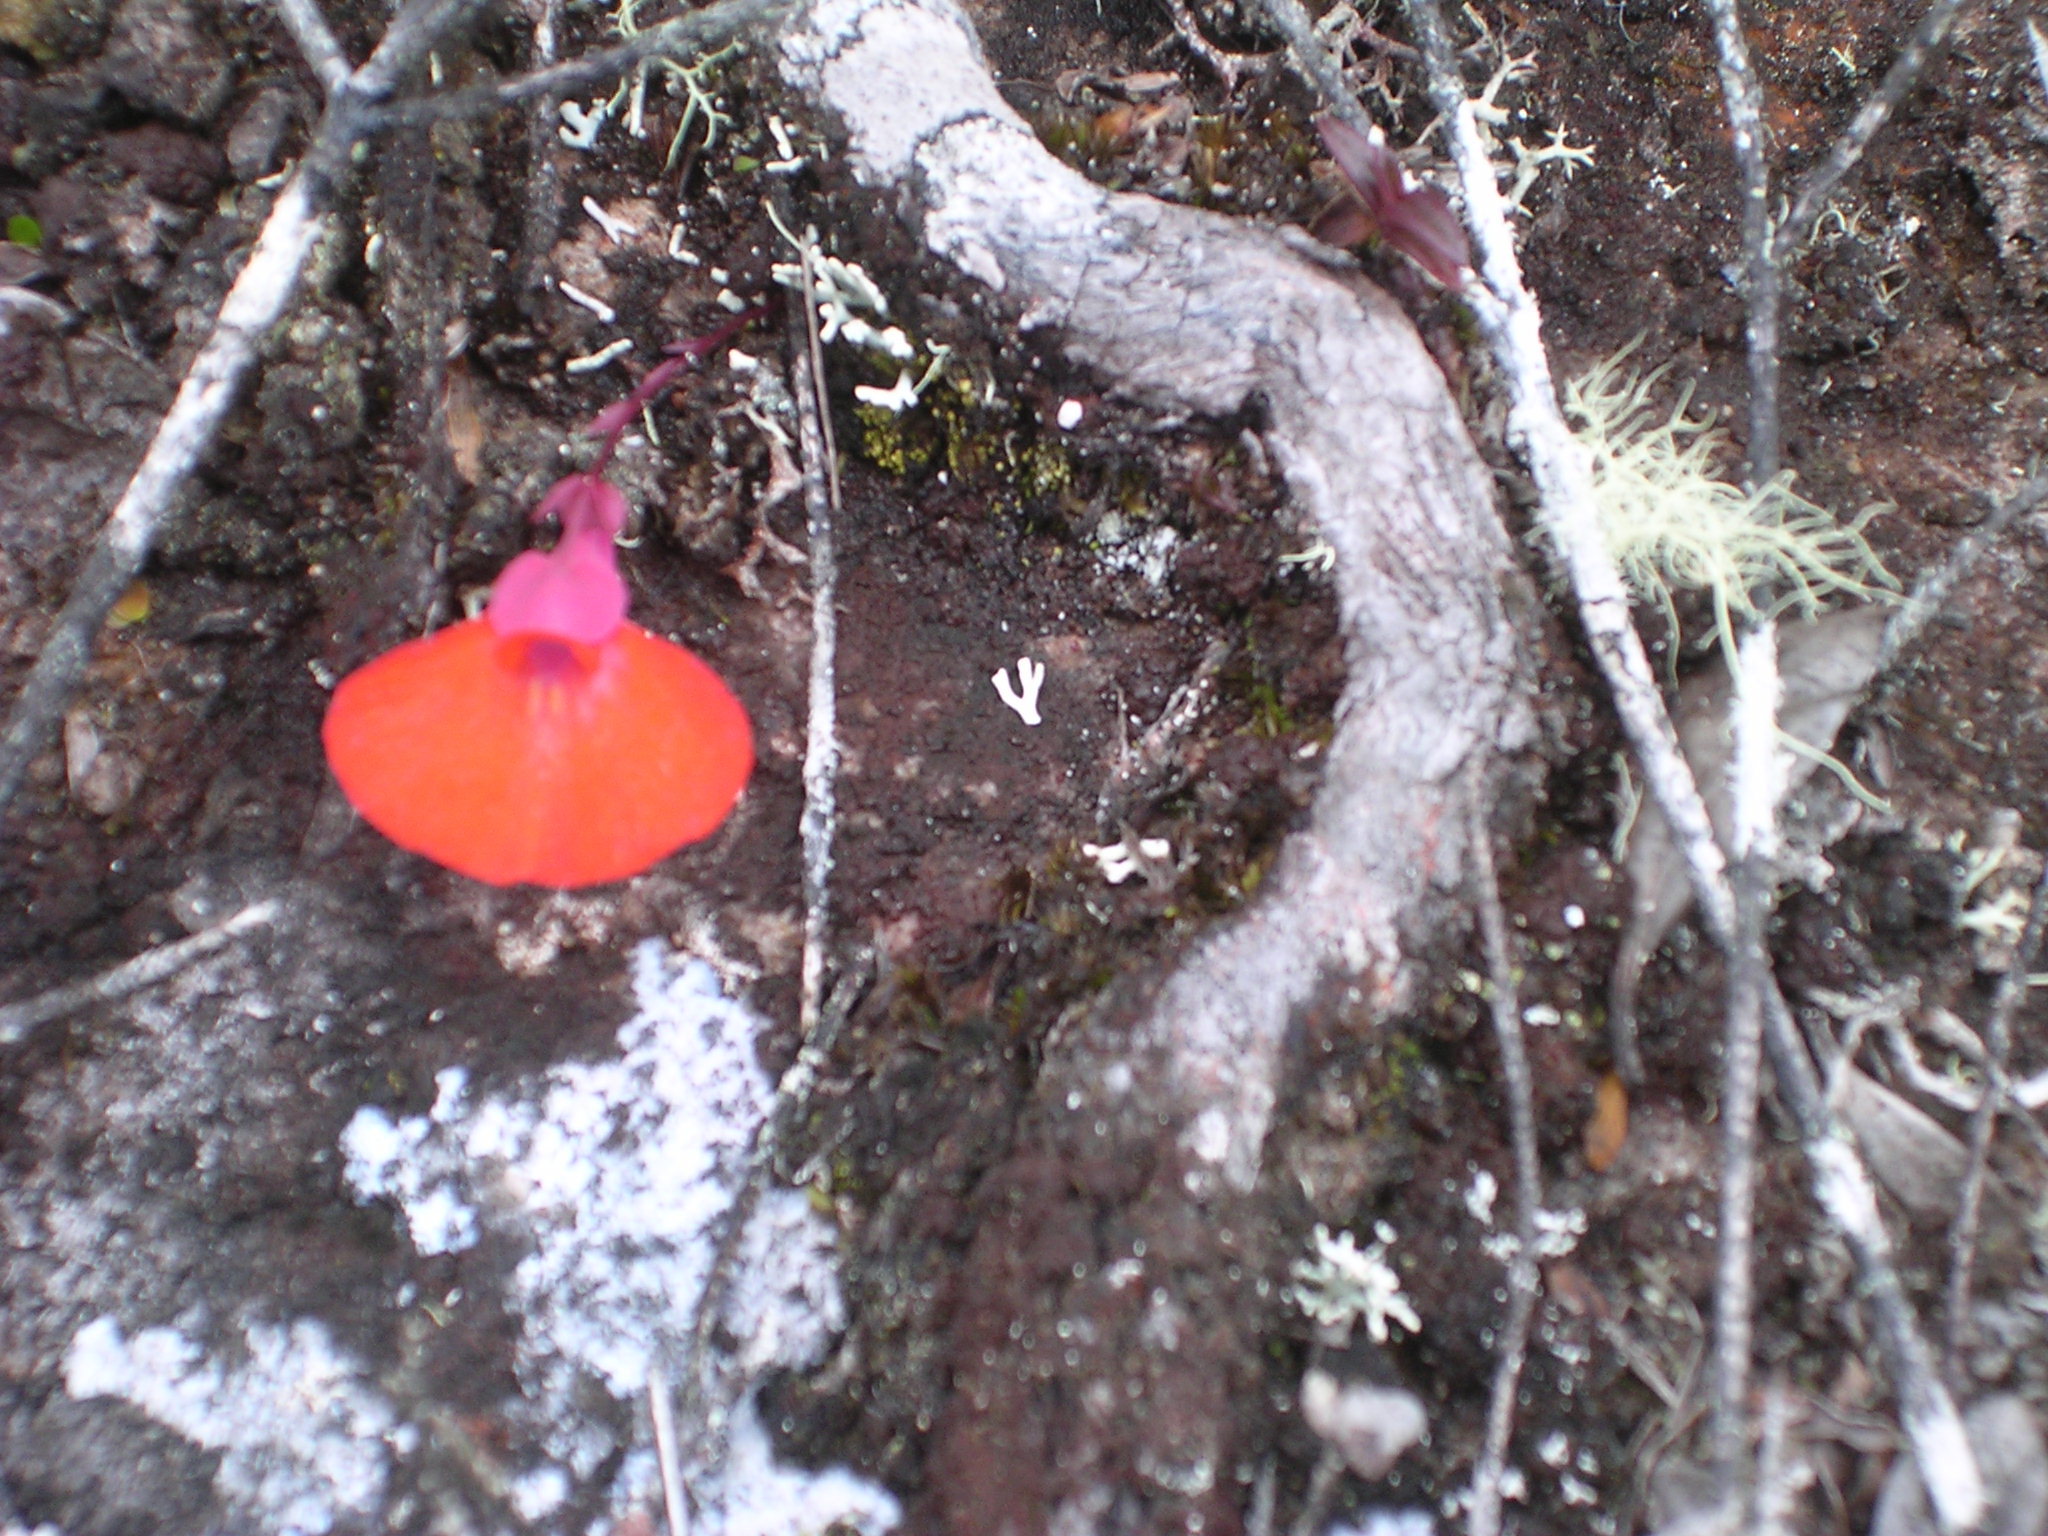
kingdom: Plantae
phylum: Tracheophyta
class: Magnoliopsida
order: Lamiales
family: Lentibulariaceae
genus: Utricularia
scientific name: Utricularia campbelliana
